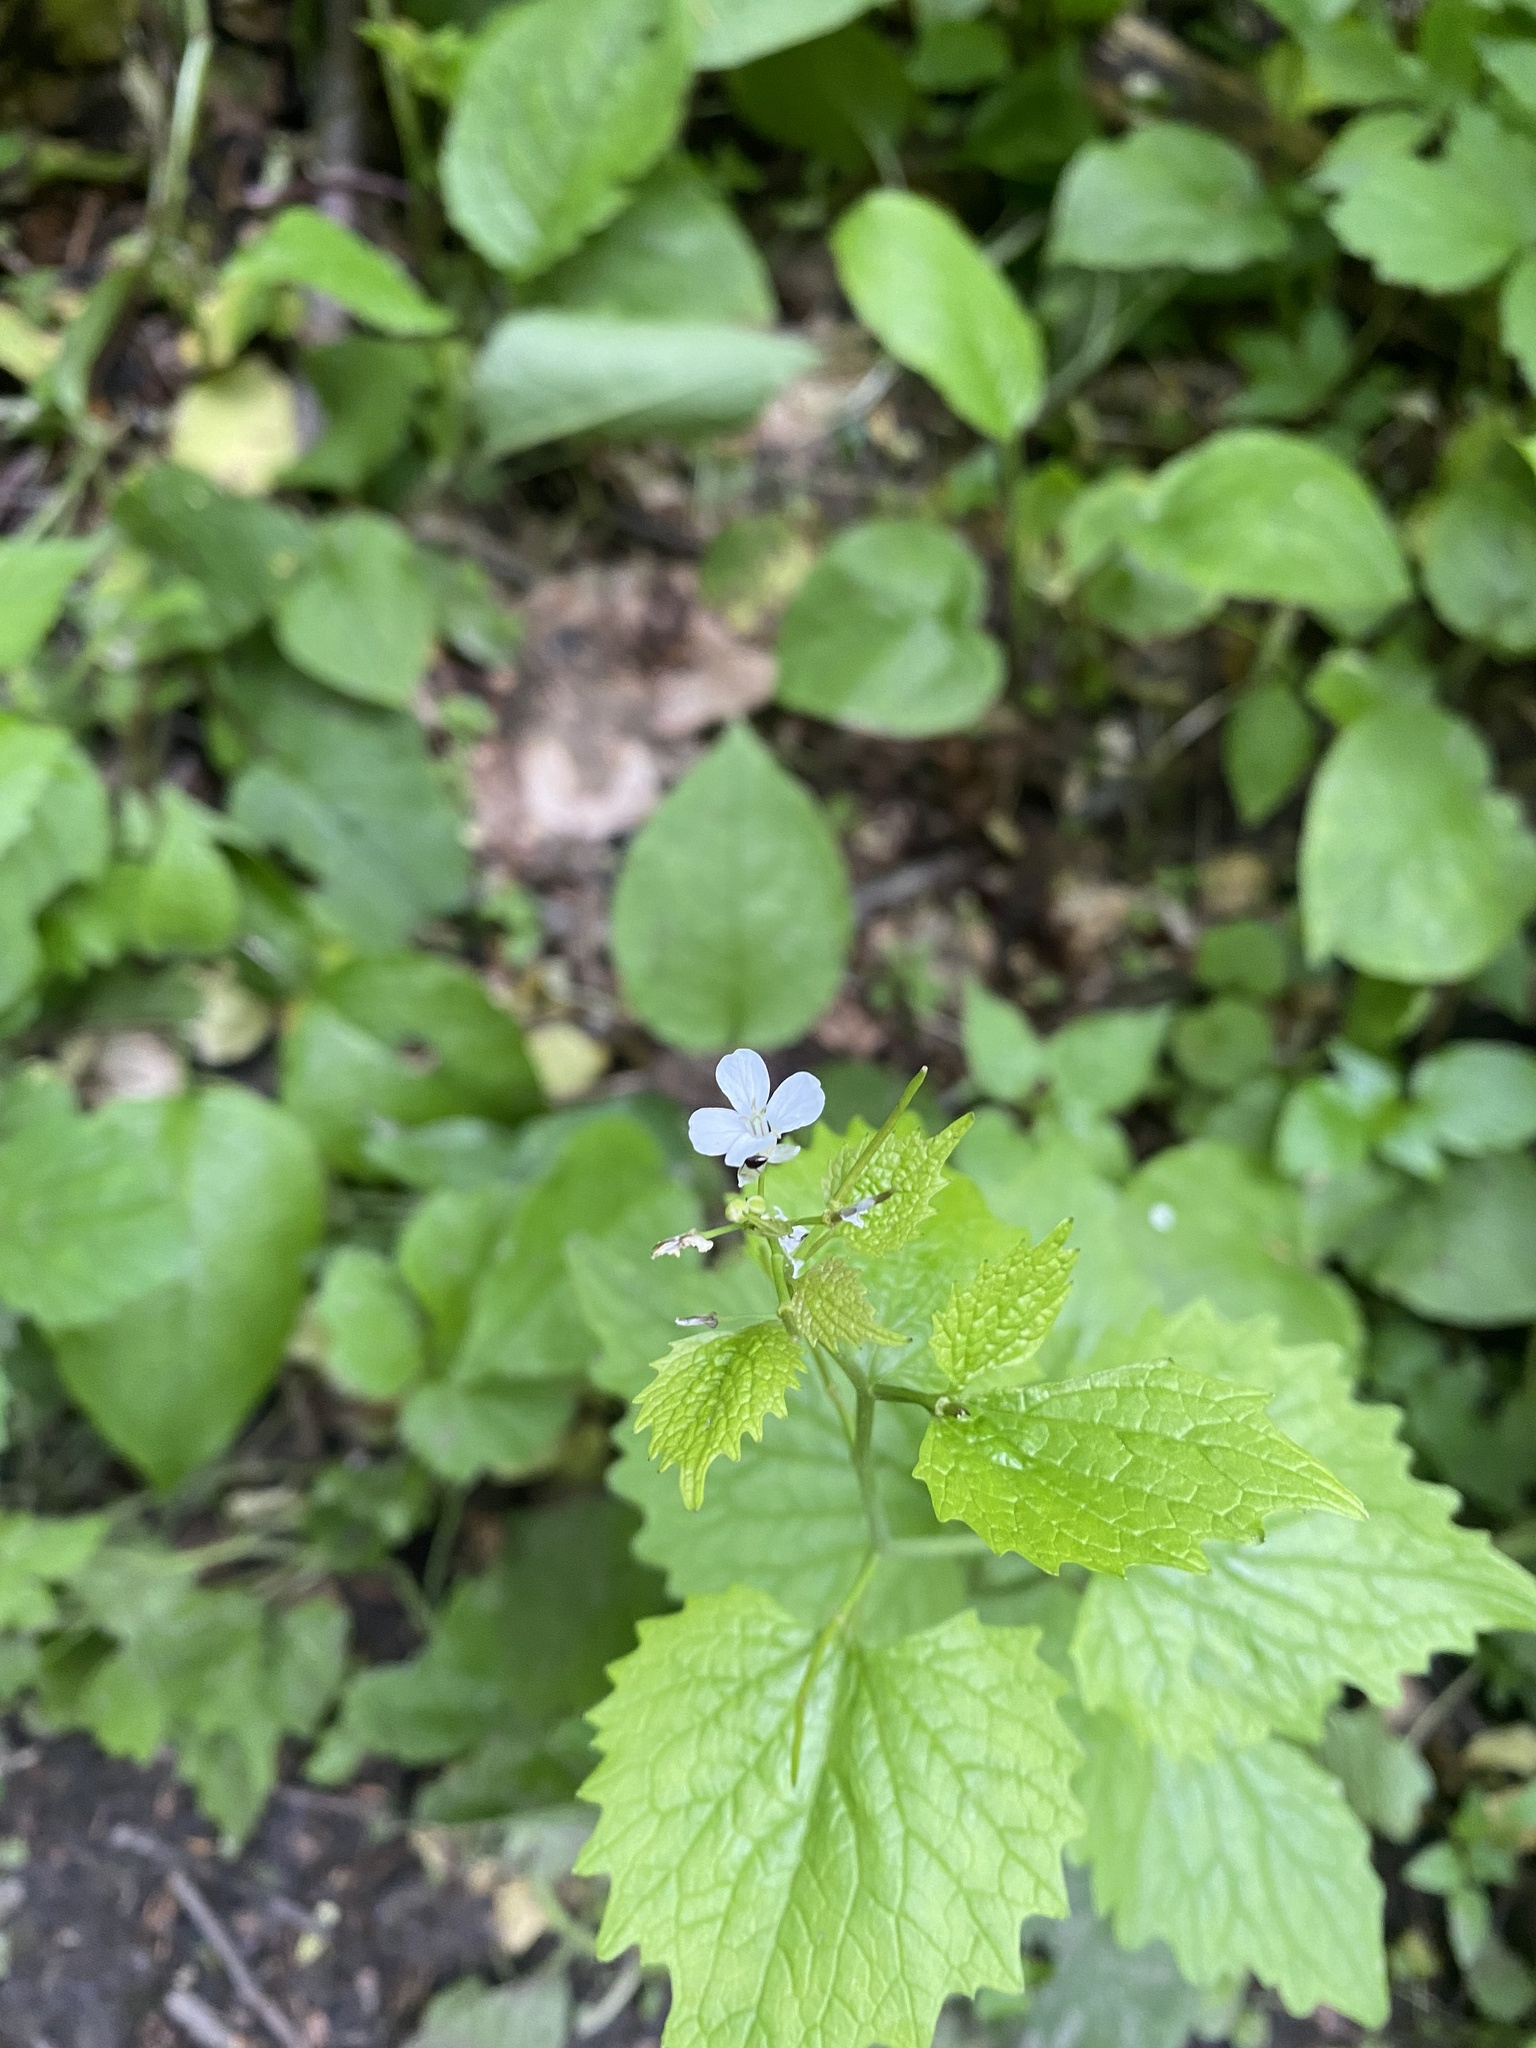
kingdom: Plantae
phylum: Tracheophyta
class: Magnoliopsida
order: Brassicales
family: Brassicaceae
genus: Alliaria
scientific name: Alliaria petiolata
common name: Garlic mustard
